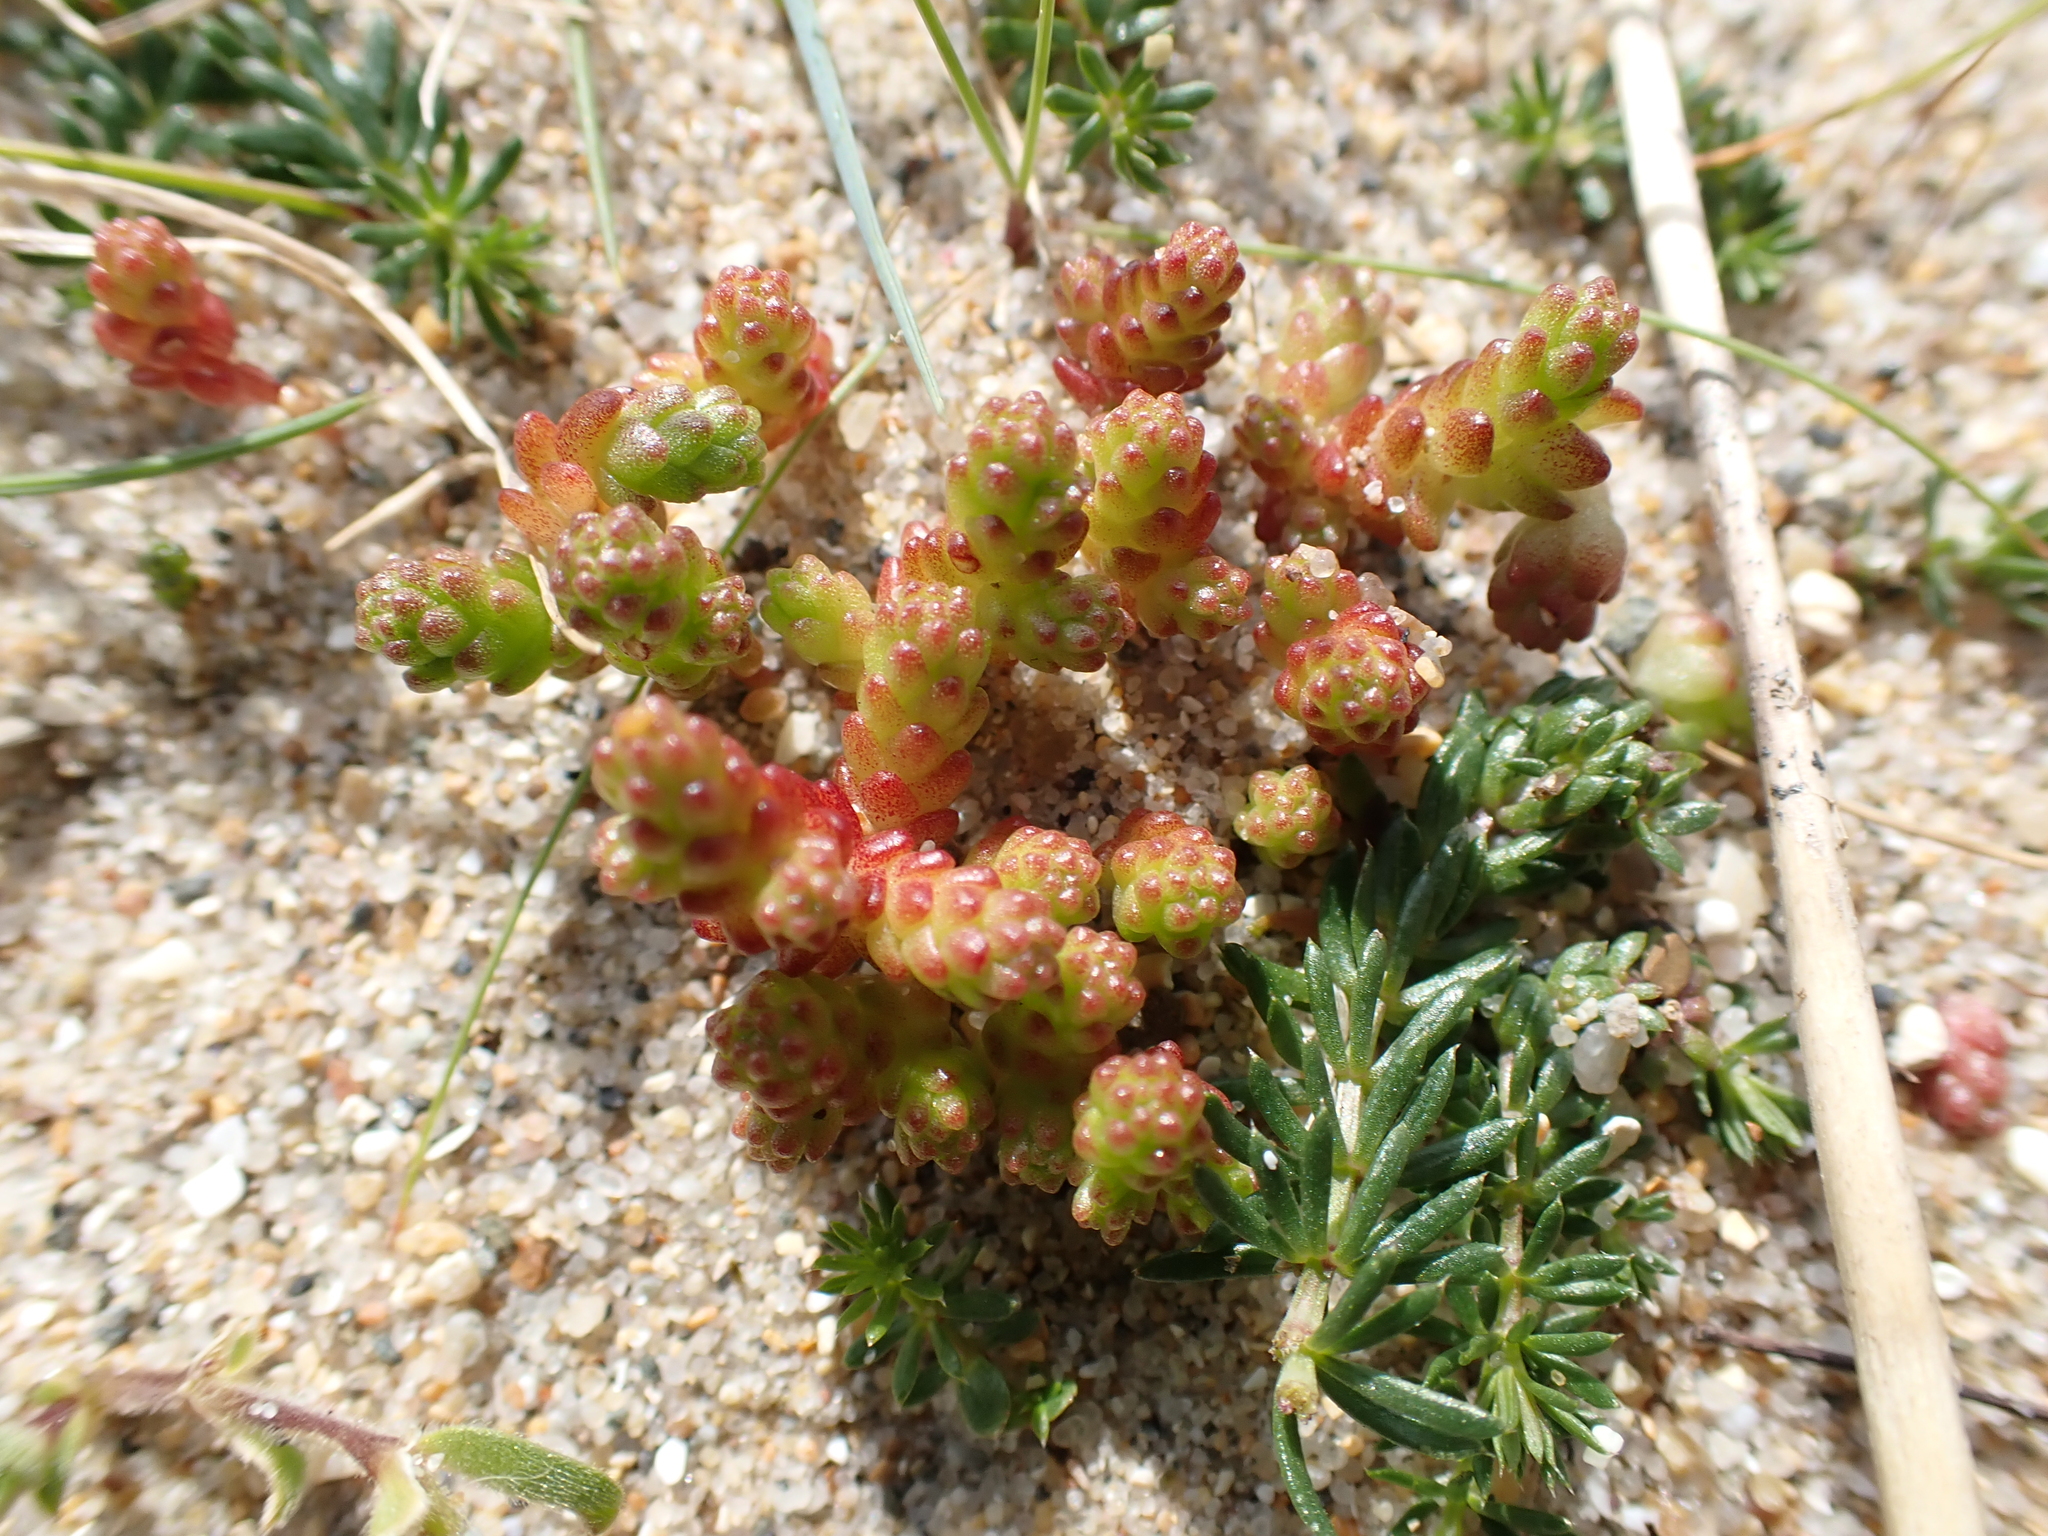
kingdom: Plantae
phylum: Tracheophyta
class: Magnoliopsida
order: Saxifragales
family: Crassulaceae
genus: Sedum
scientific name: Sedum acre
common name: Biting stonecrop
